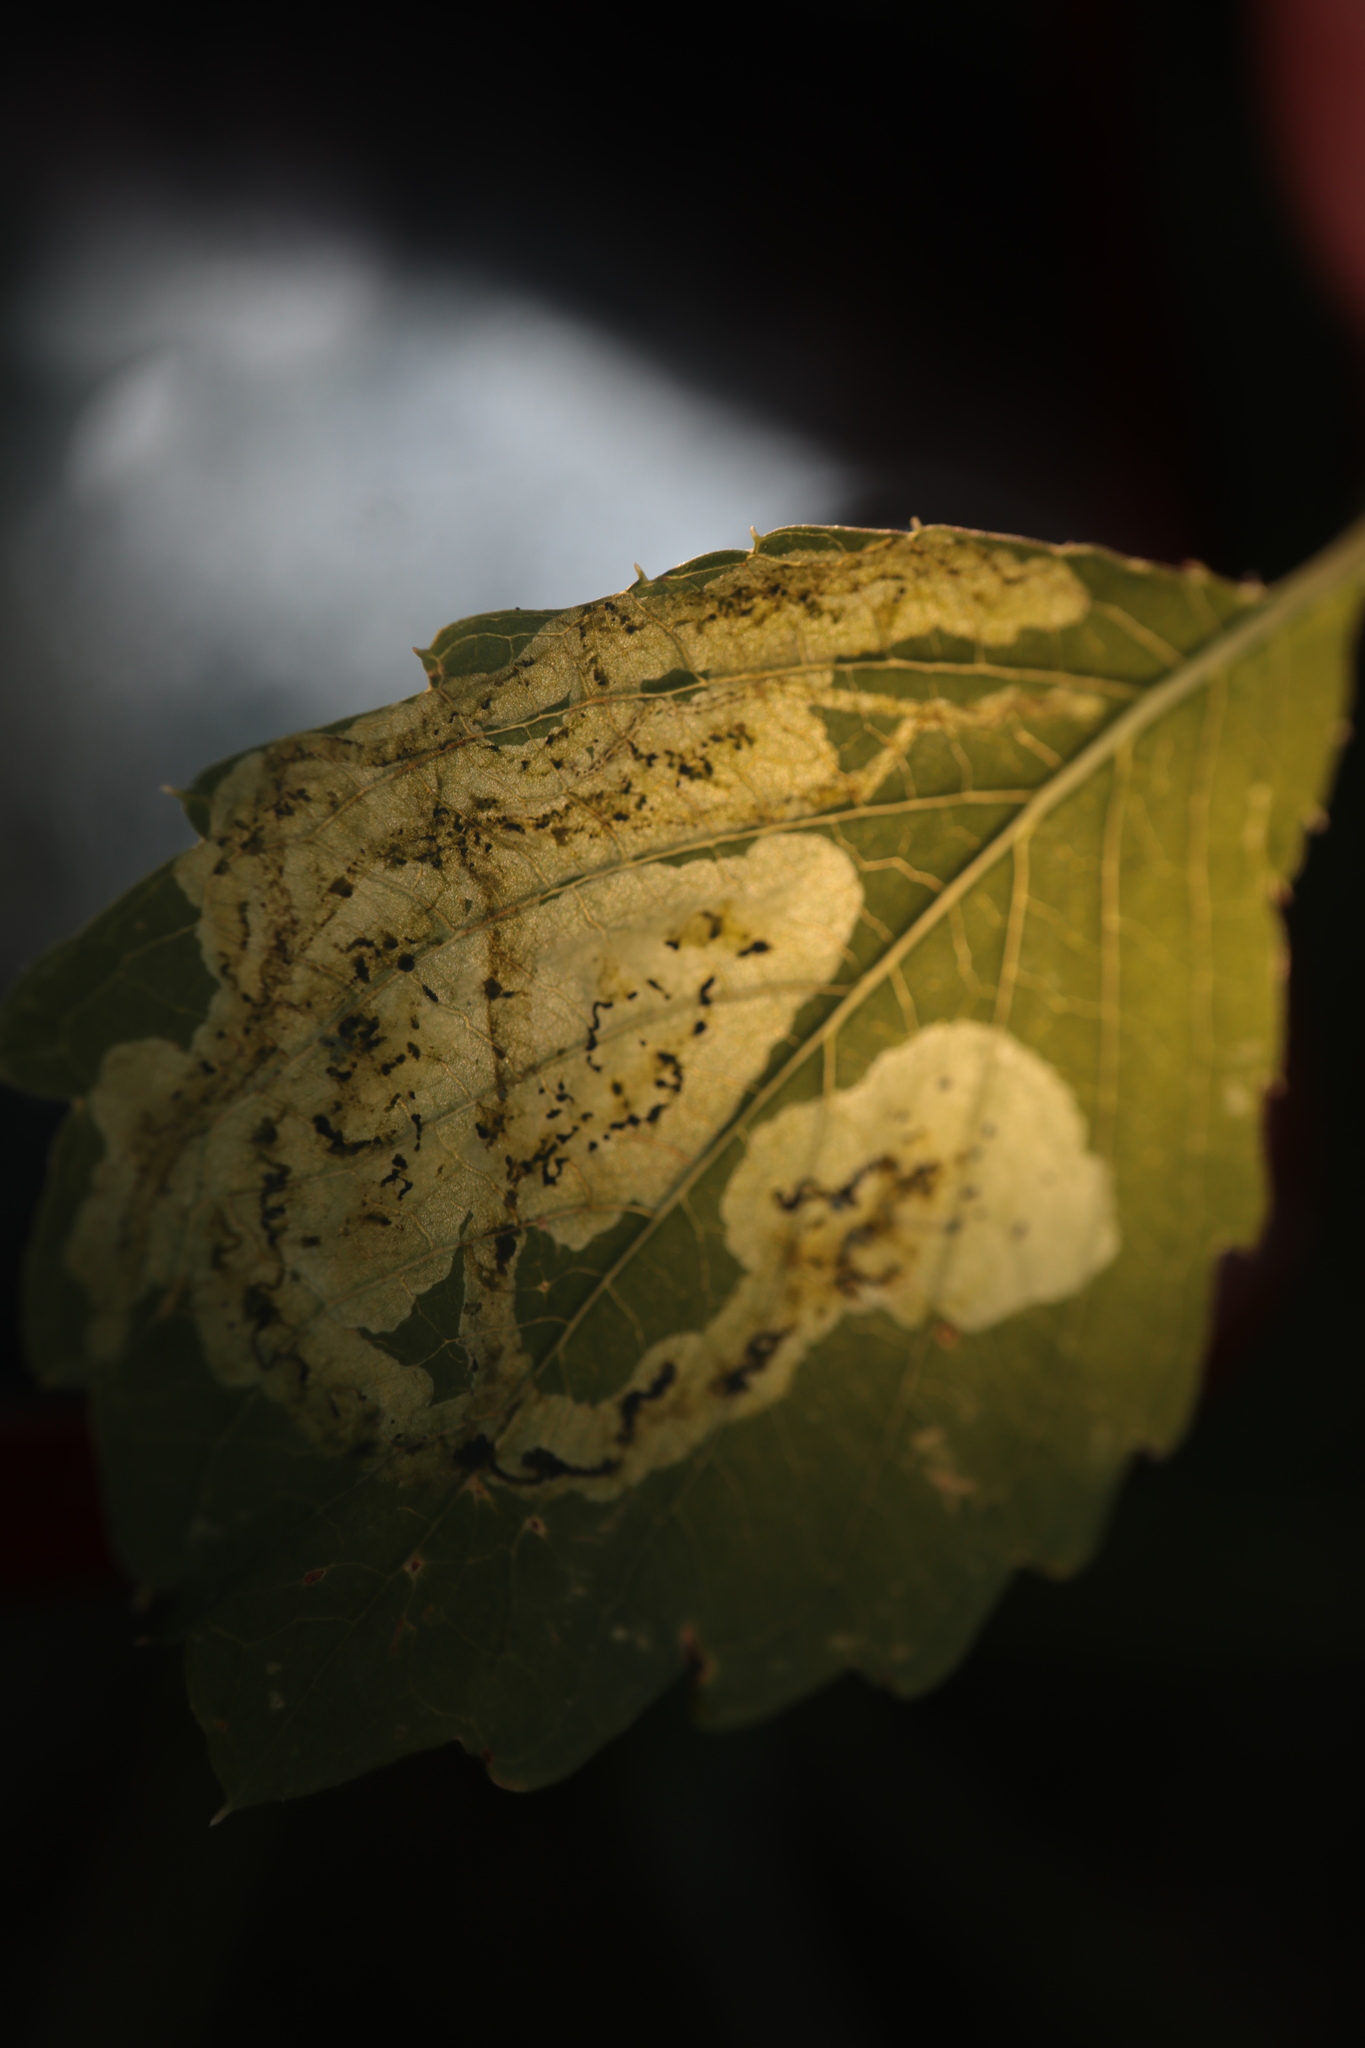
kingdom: Animalia
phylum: Arthropoda
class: Insecta
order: Diptera
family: Agromyzidae
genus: Phytoliriomyza
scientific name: Phytoliriomyza melampyga
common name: Jewelweed leaf-miner fly
